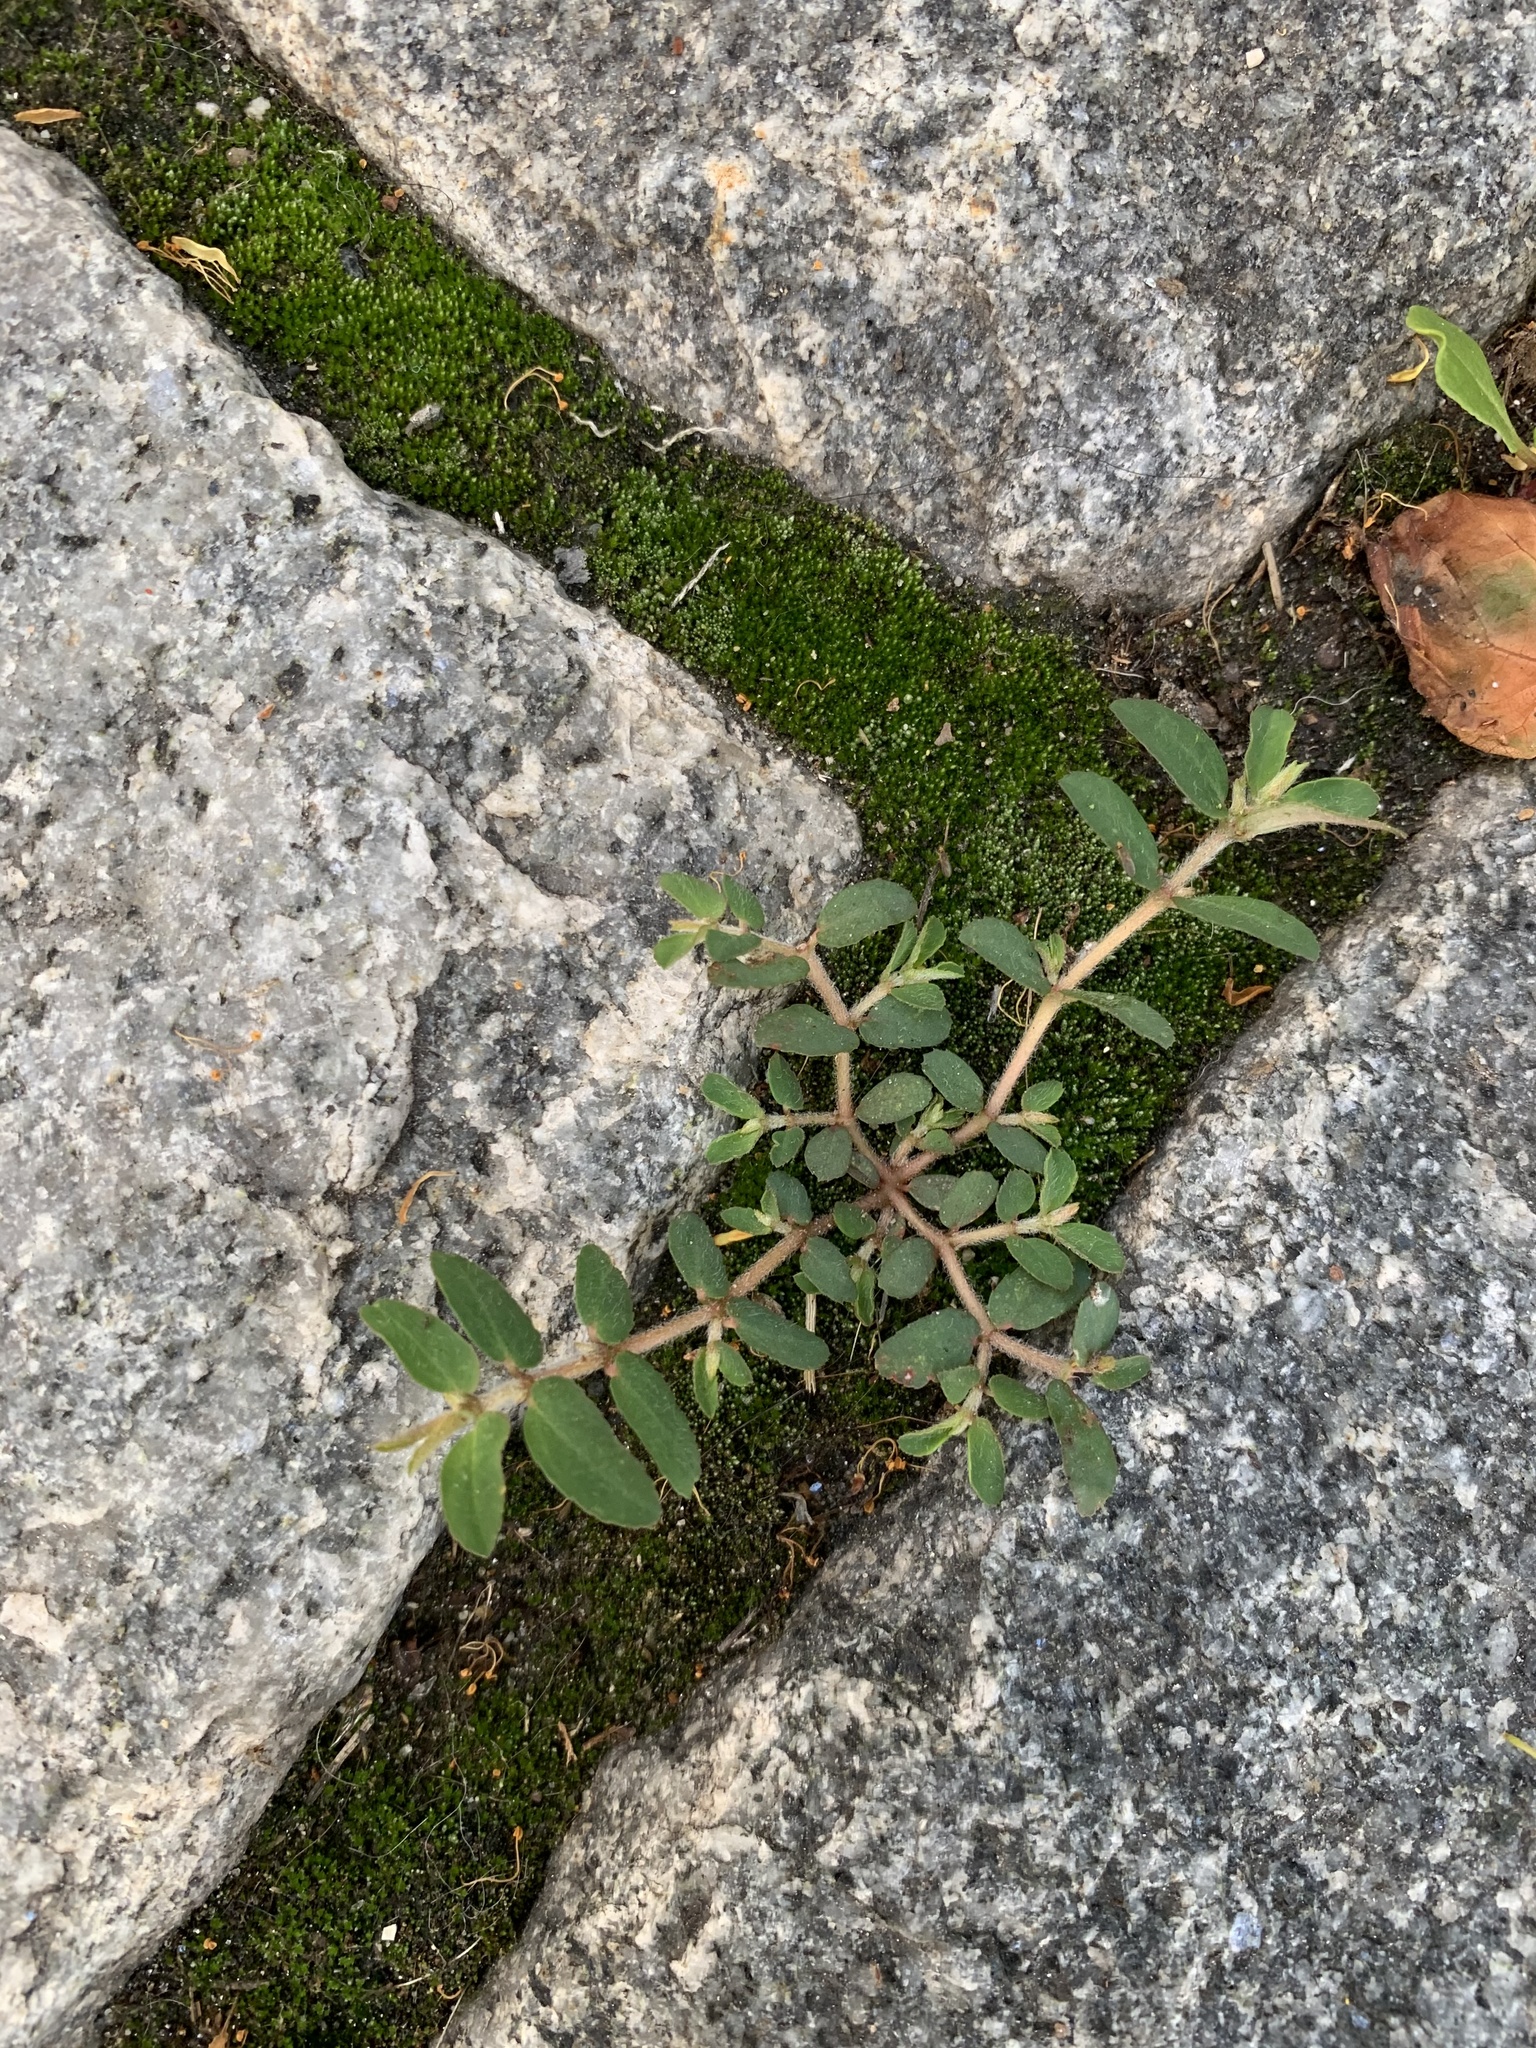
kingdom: Plantae
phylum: Tracheophyta
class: Magnoliopsida
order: Malpighiales
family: Euphorbiaceae
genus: Euphorbia
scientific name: Euphorbia maculata
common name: Spotted spurge
